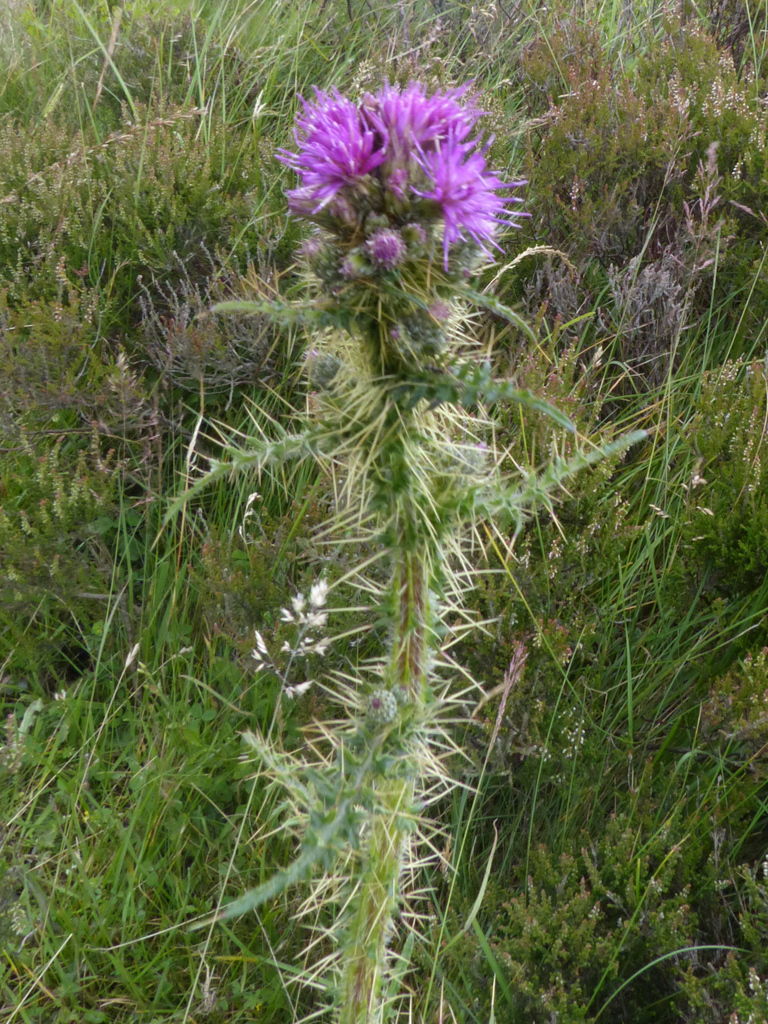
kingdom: Plantae
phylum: Tracheophyta
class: Magnoliopsida
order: Asterales
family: Asteraceae
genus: Cirsium
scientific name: Cirsium palustre
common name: Marsh thistle
